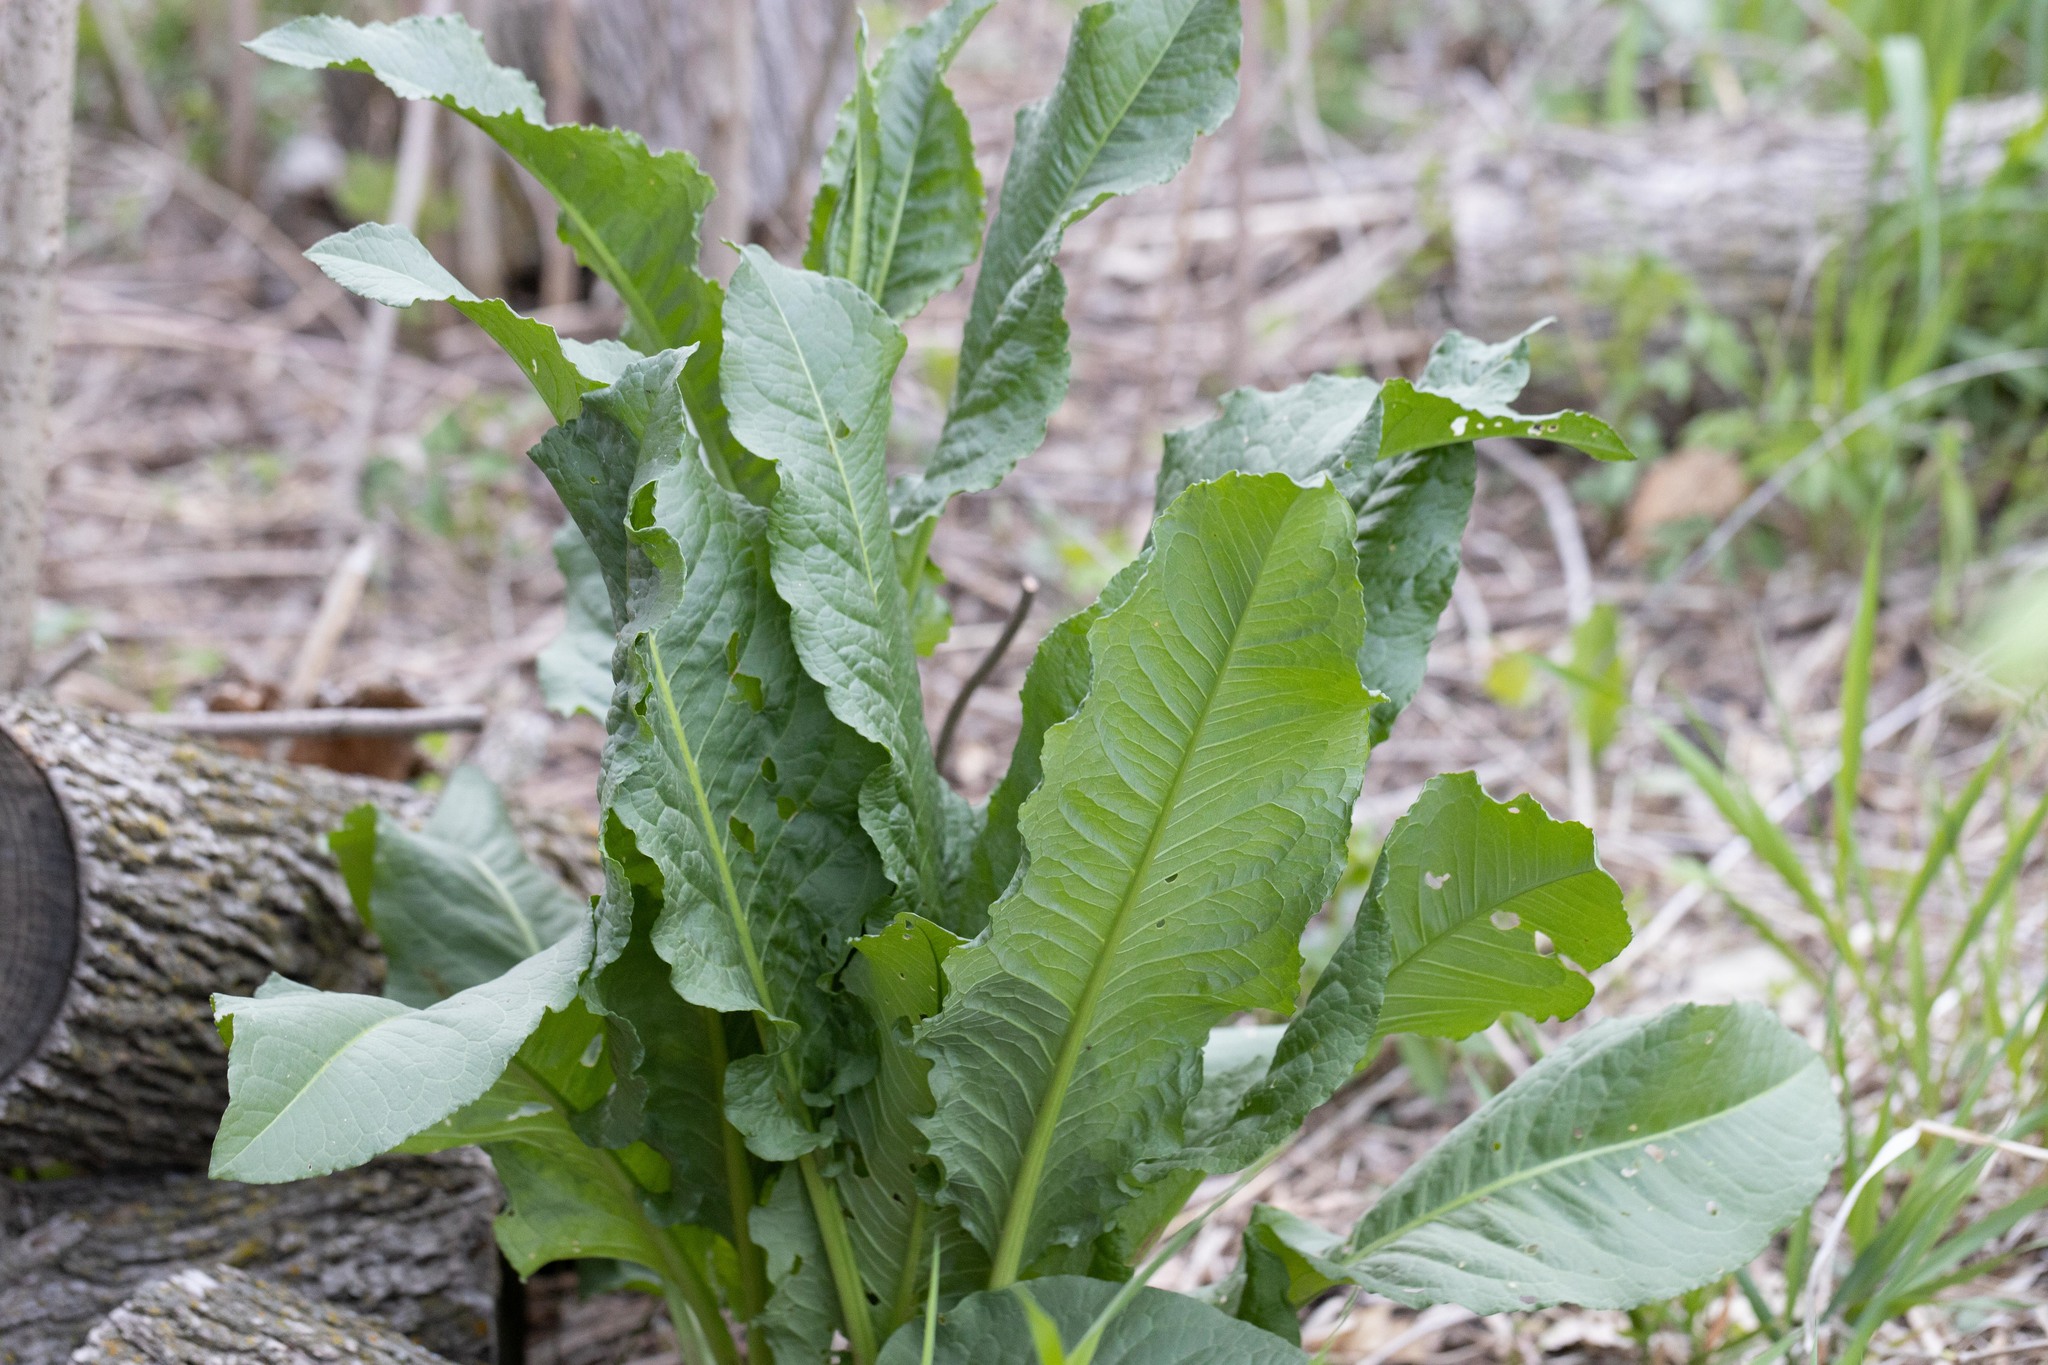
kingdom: Plantae
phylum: Tracheophyta
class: Magnoliopsida
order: Caryophyllales
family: Polygonaceae
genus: Rumex
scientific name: Rumex crispus
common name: Curled dock
